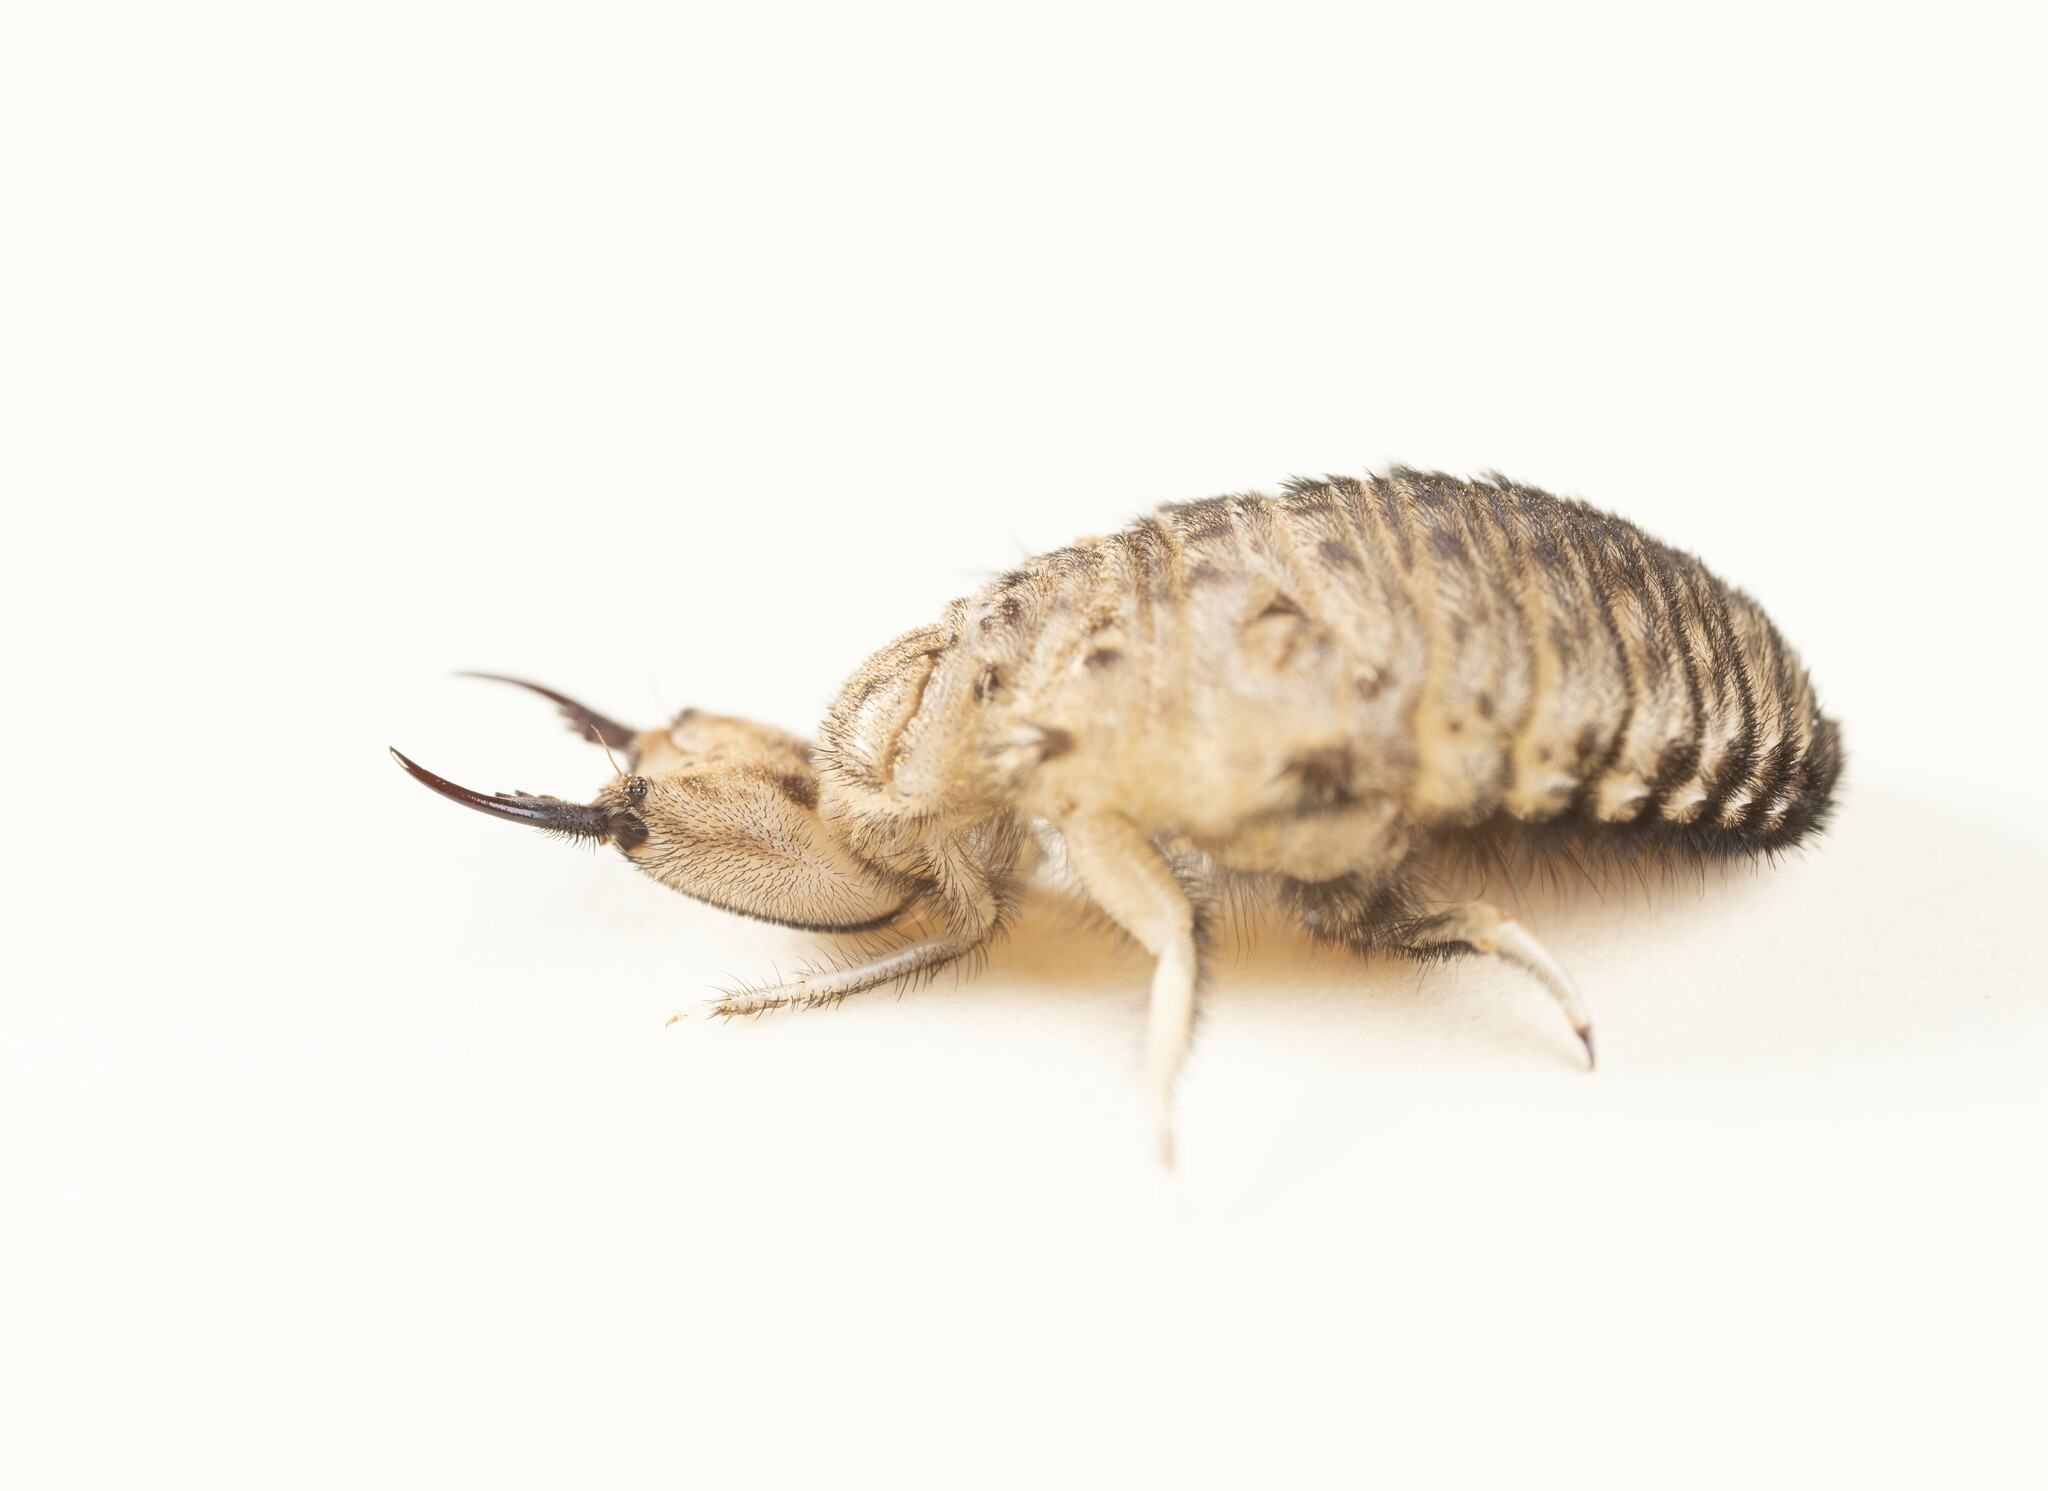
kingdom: Animalia
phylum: Arthropoda
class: Insecta
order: Neuroptera
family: Myrmeleontidae
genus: Vella
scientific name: Vella fallax
